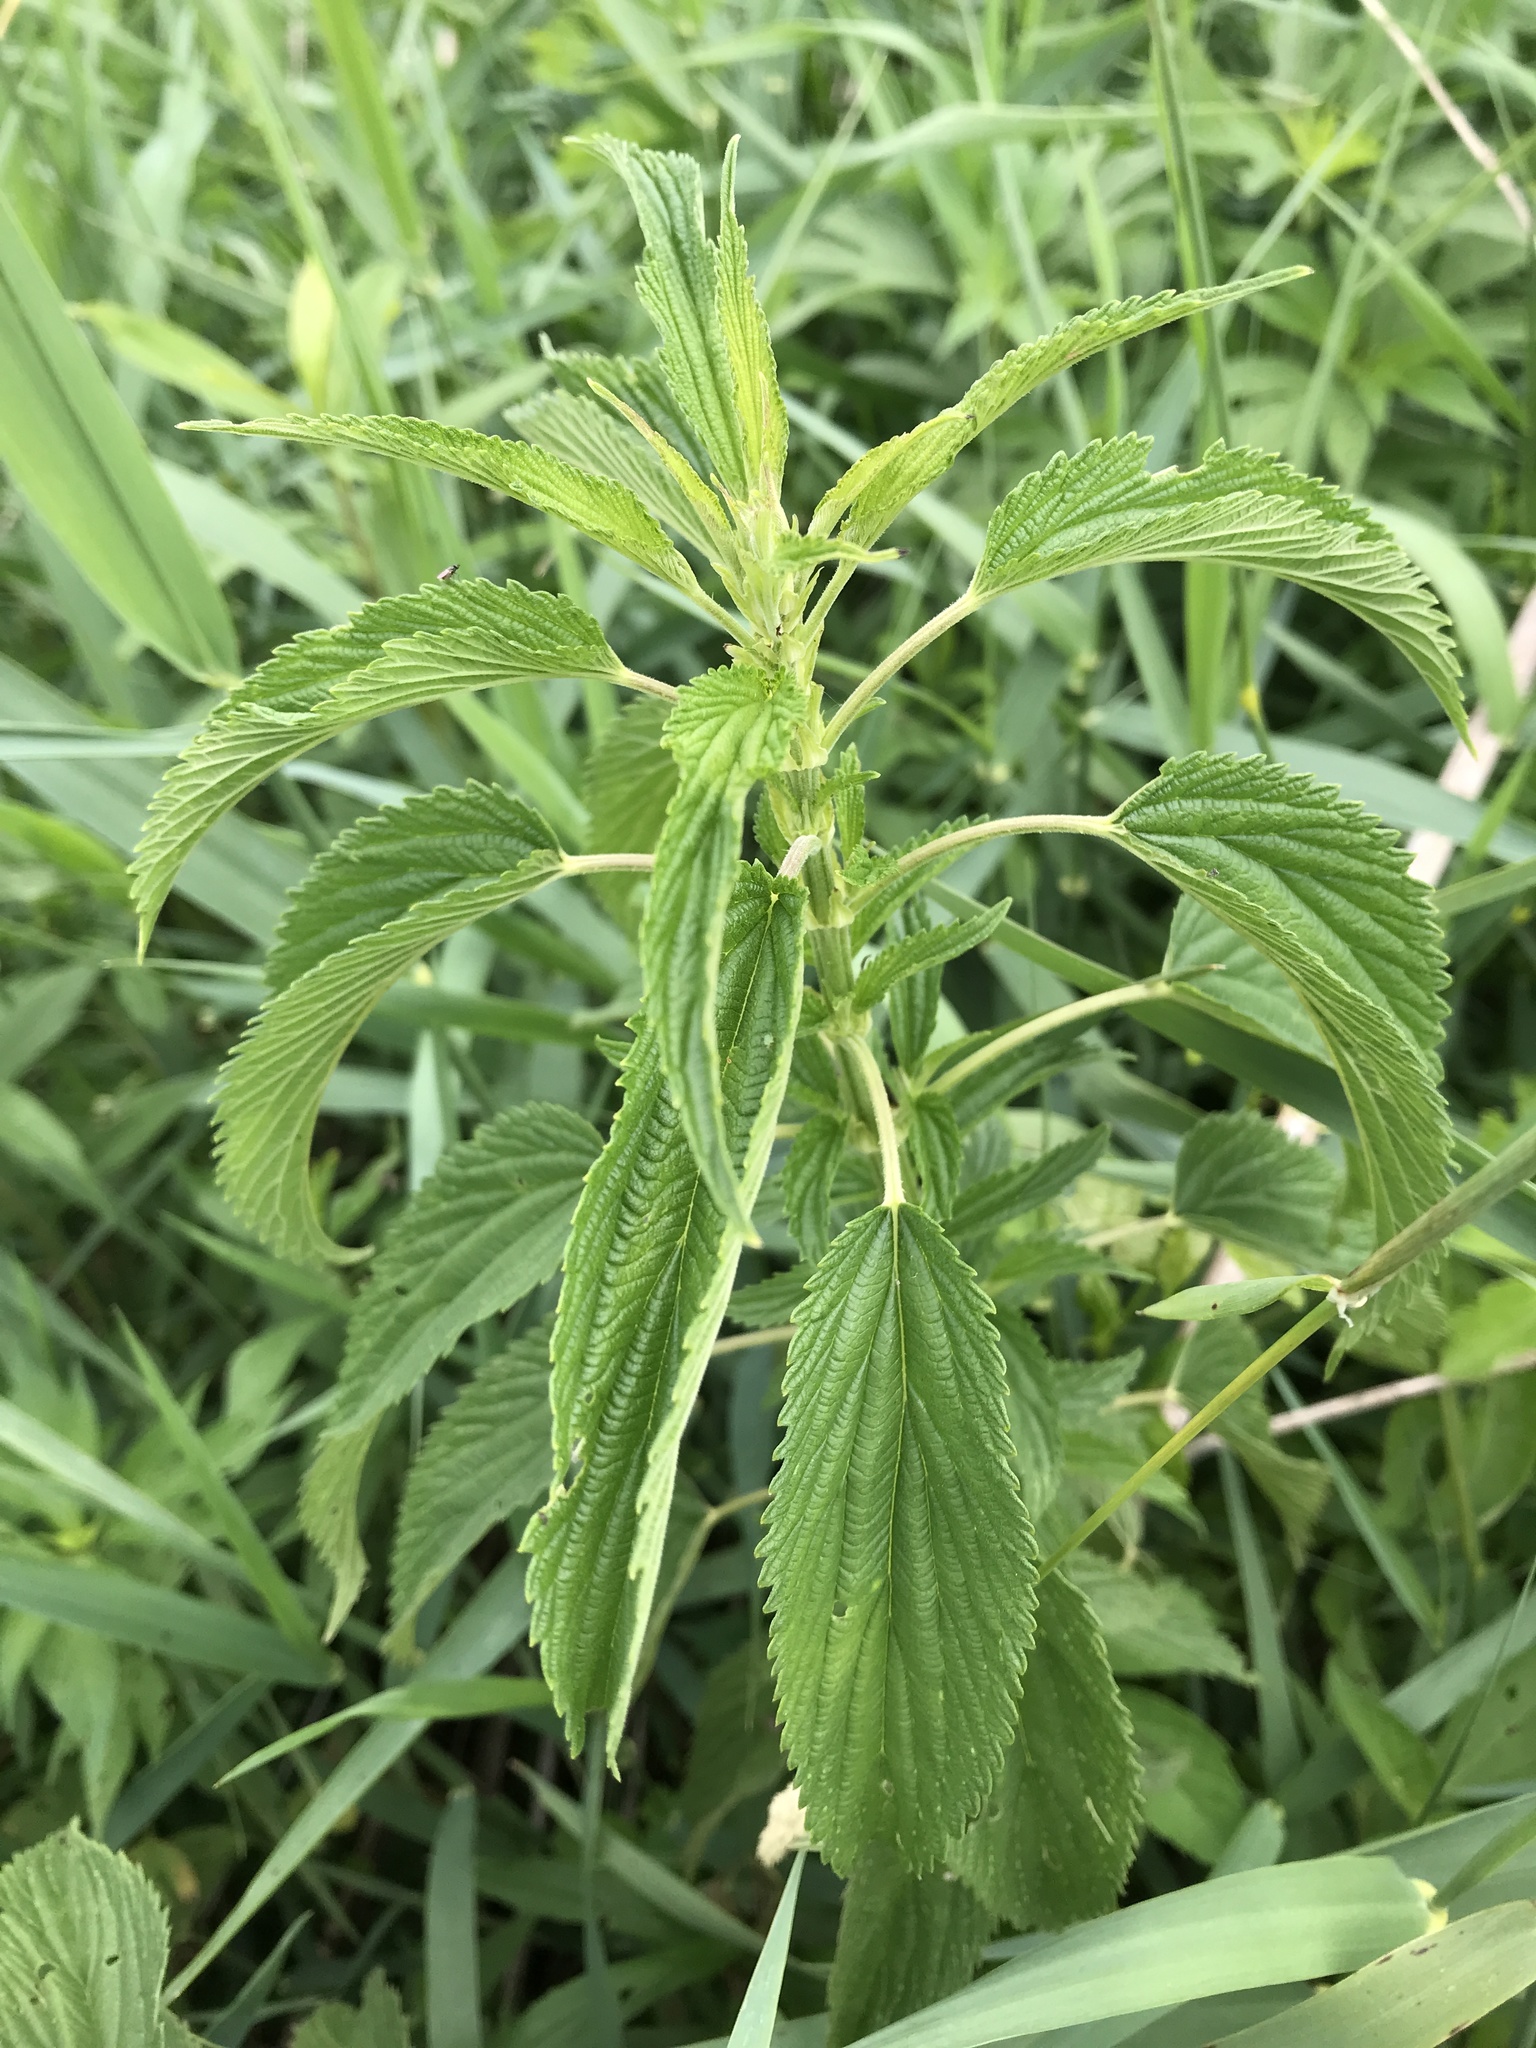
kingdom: Plantae
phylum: Tracheophyta
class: Magnoliopsida
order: Rosales
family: Urticaceae
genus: Urtica
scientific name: Urtica dioica
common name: Common nettle
